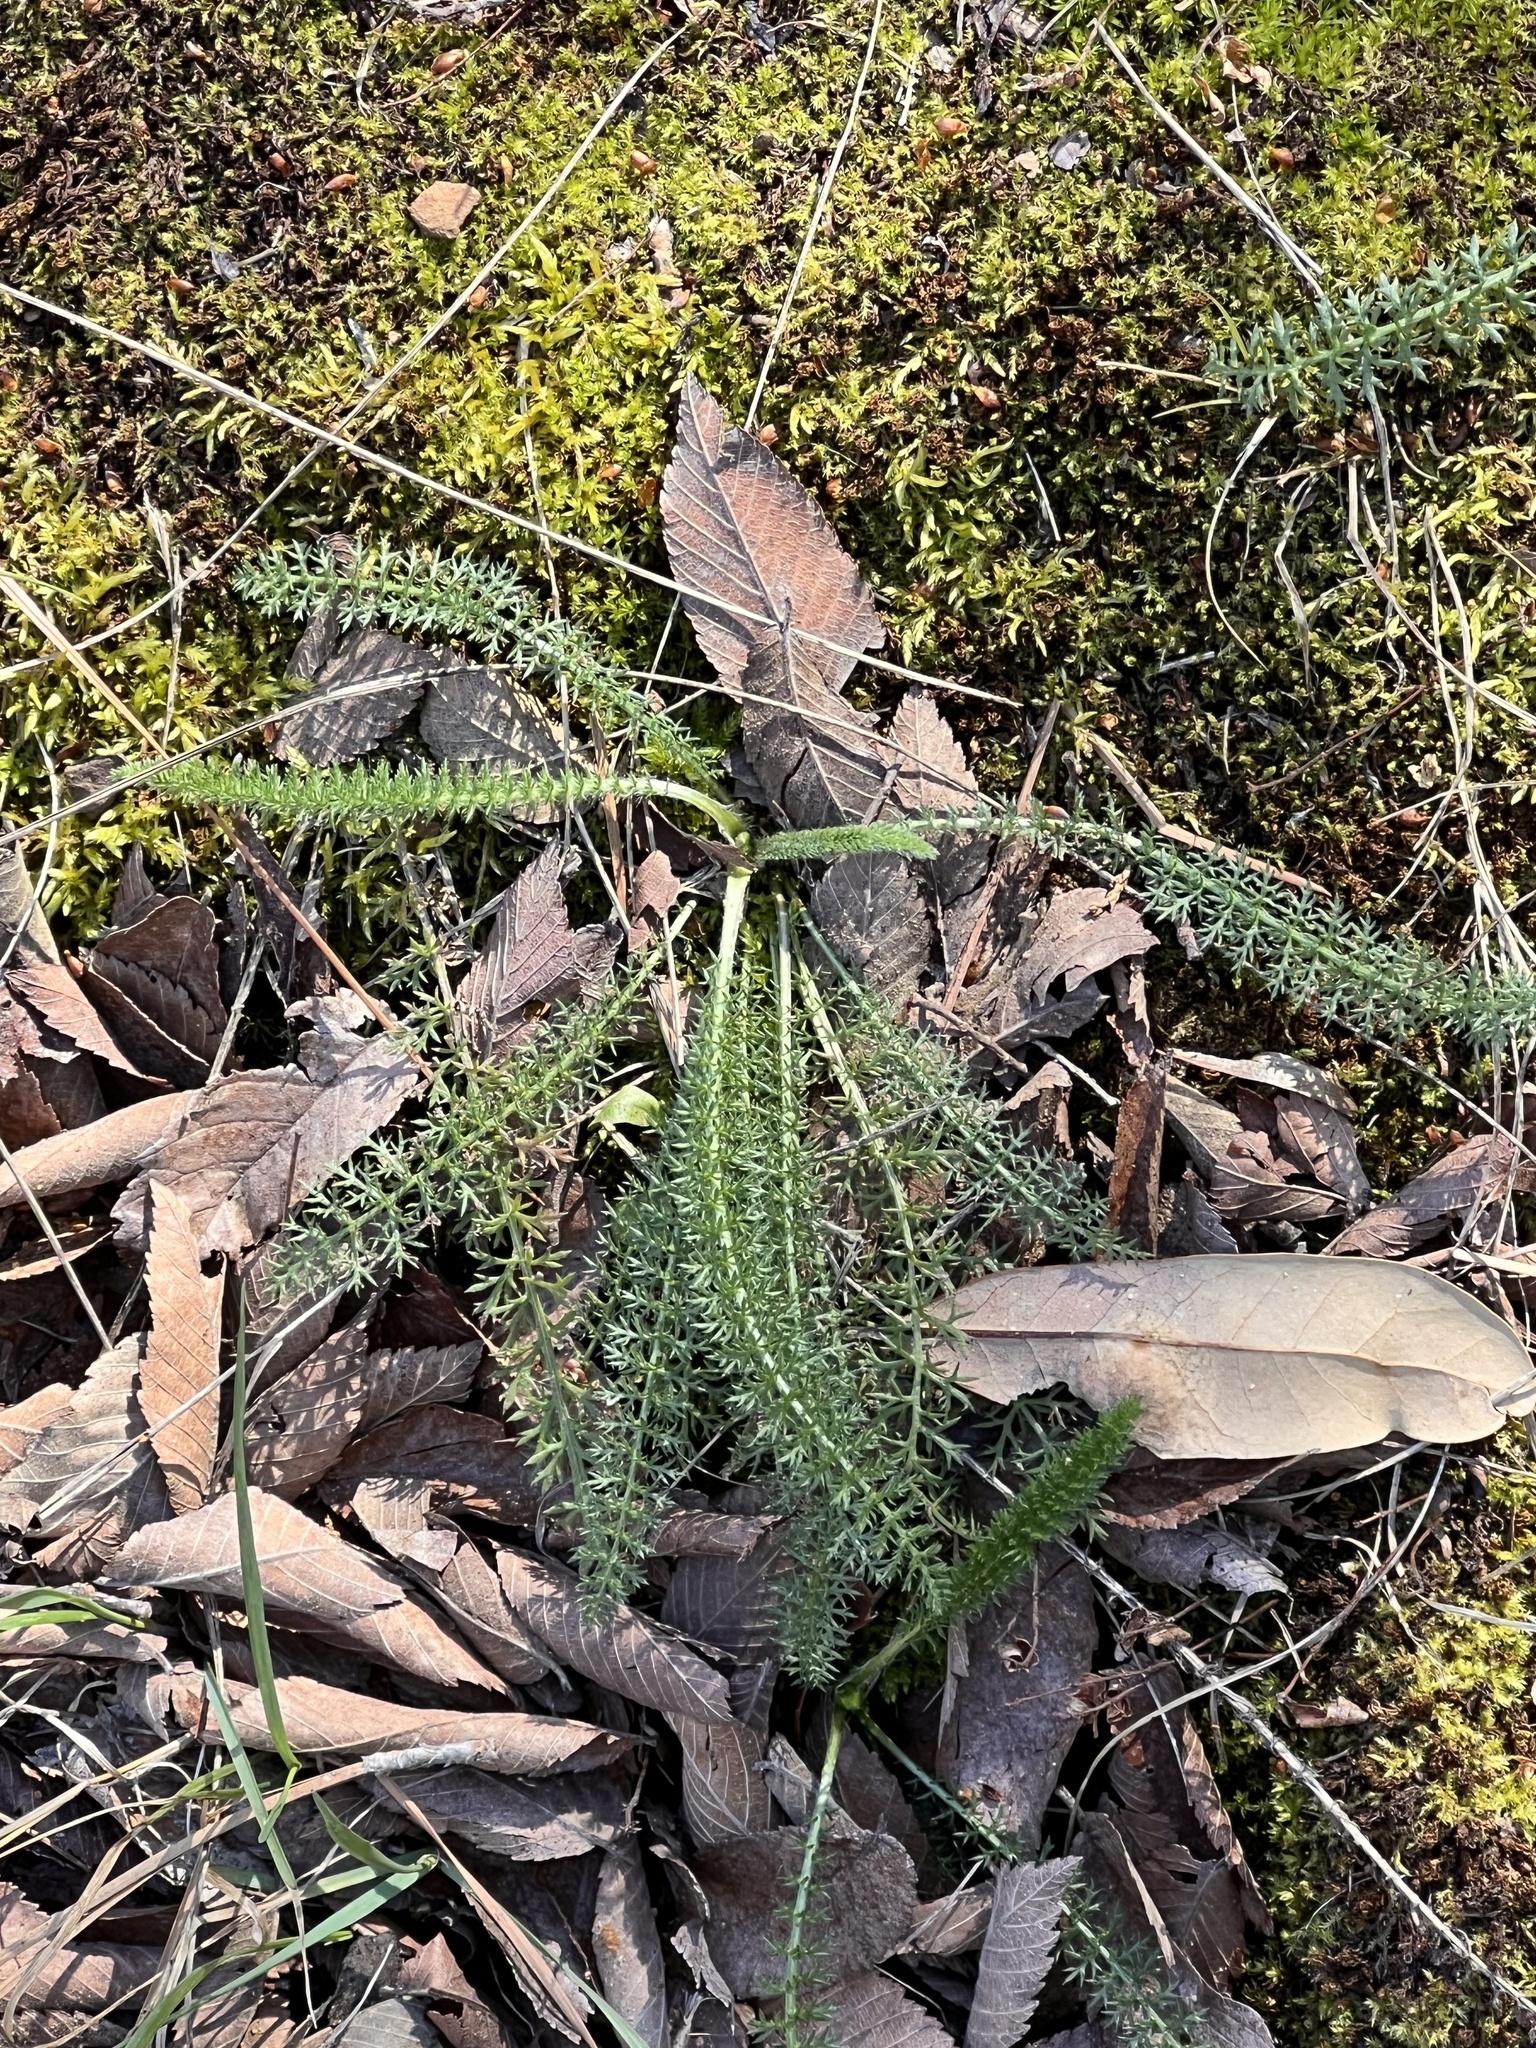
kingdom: Plantae
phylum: Tracheophyta
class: Magnoliopsida
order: Asterales
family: Asteraceae
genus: Achillea
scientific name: Achillea millefolium
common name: Yarrow
